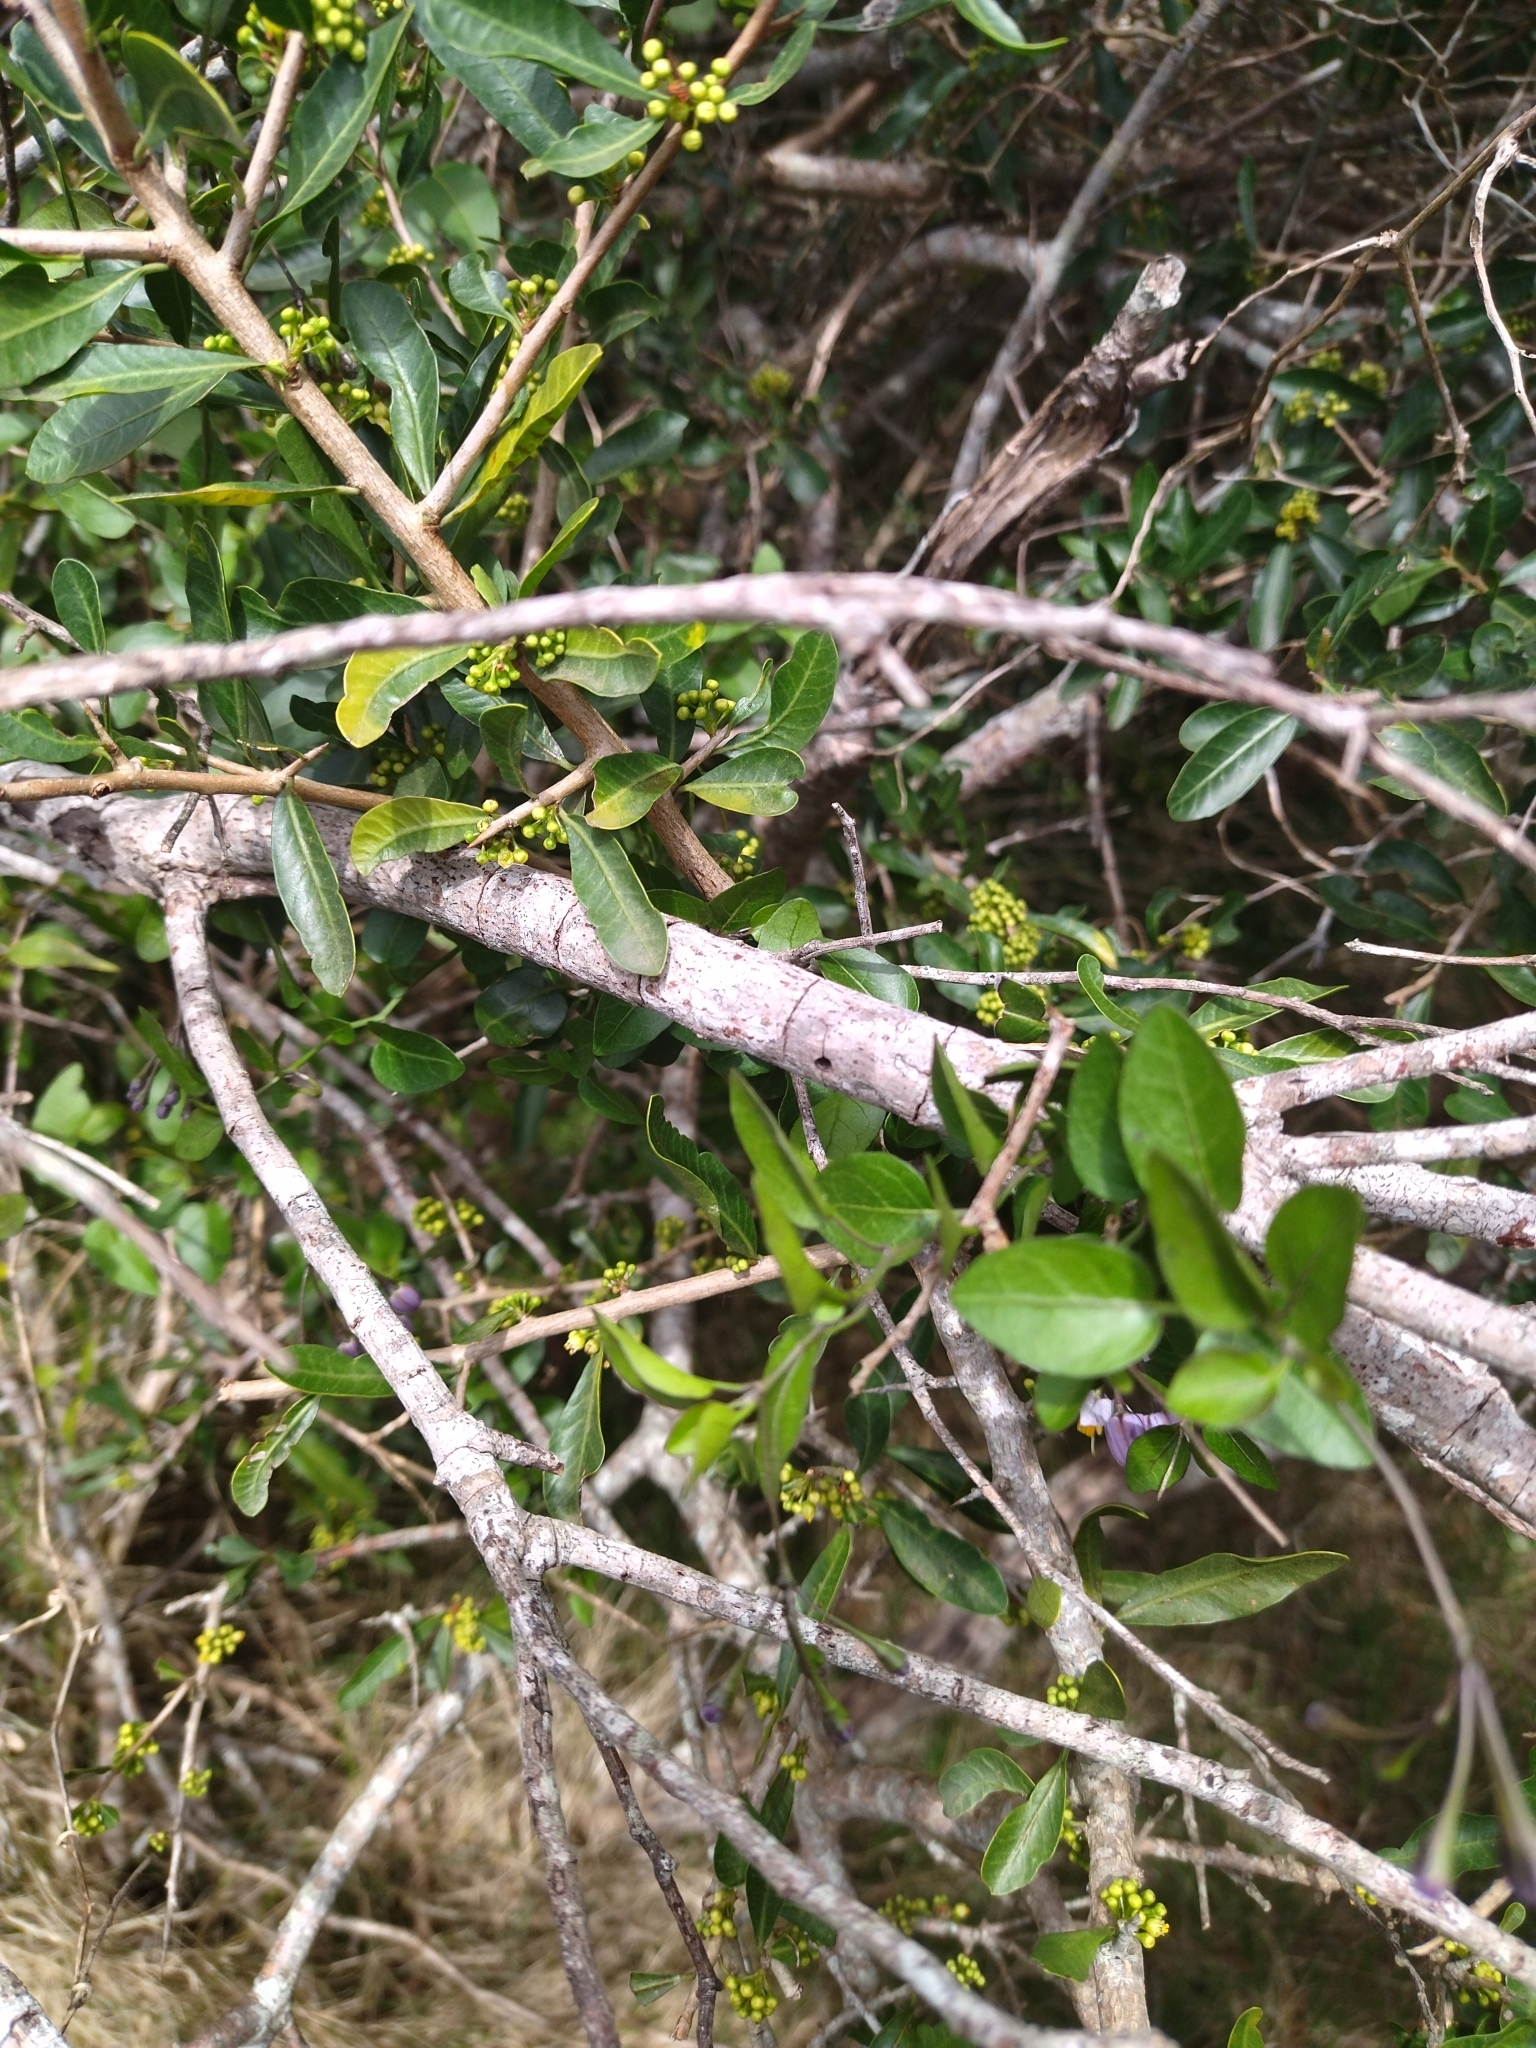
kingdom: Plantae
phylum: Tracheophyta
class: Magnoliopsida
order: Solanales
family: Solanaceae
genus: Solanum
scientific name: Solanum laxum
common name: Nightshade
